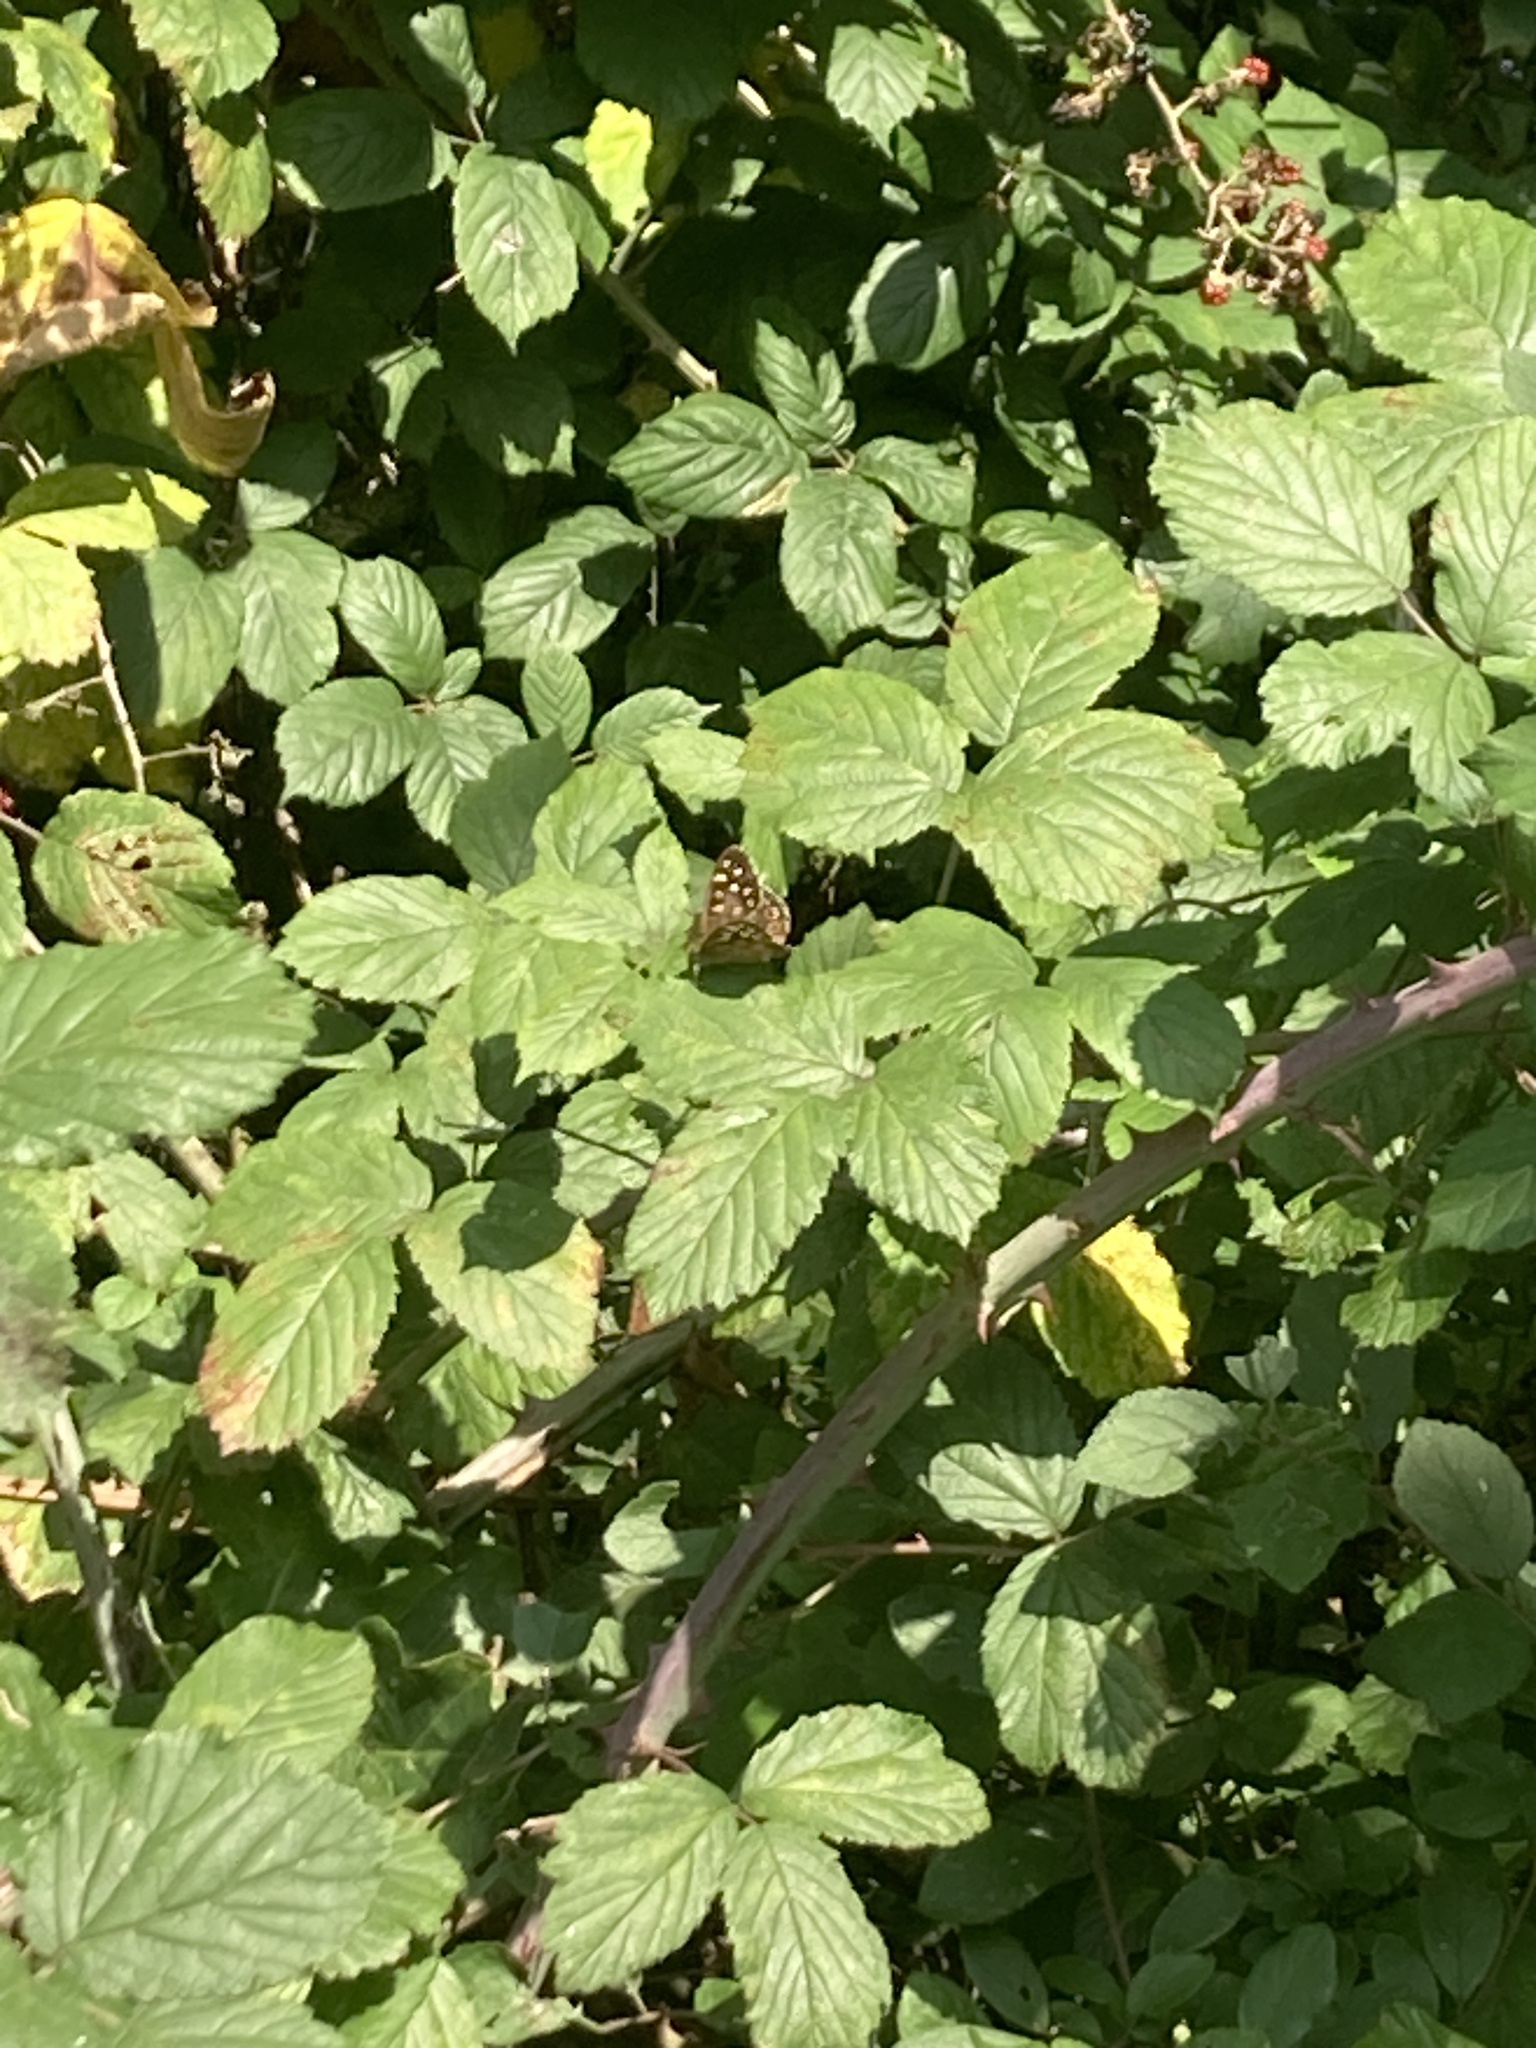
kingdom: Animalia
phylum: Arthropoda
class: Insecta
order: Lepidoptera
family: Nymphalidae
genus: Pararge
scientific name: Pararge aegeria
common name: Speckled wood
